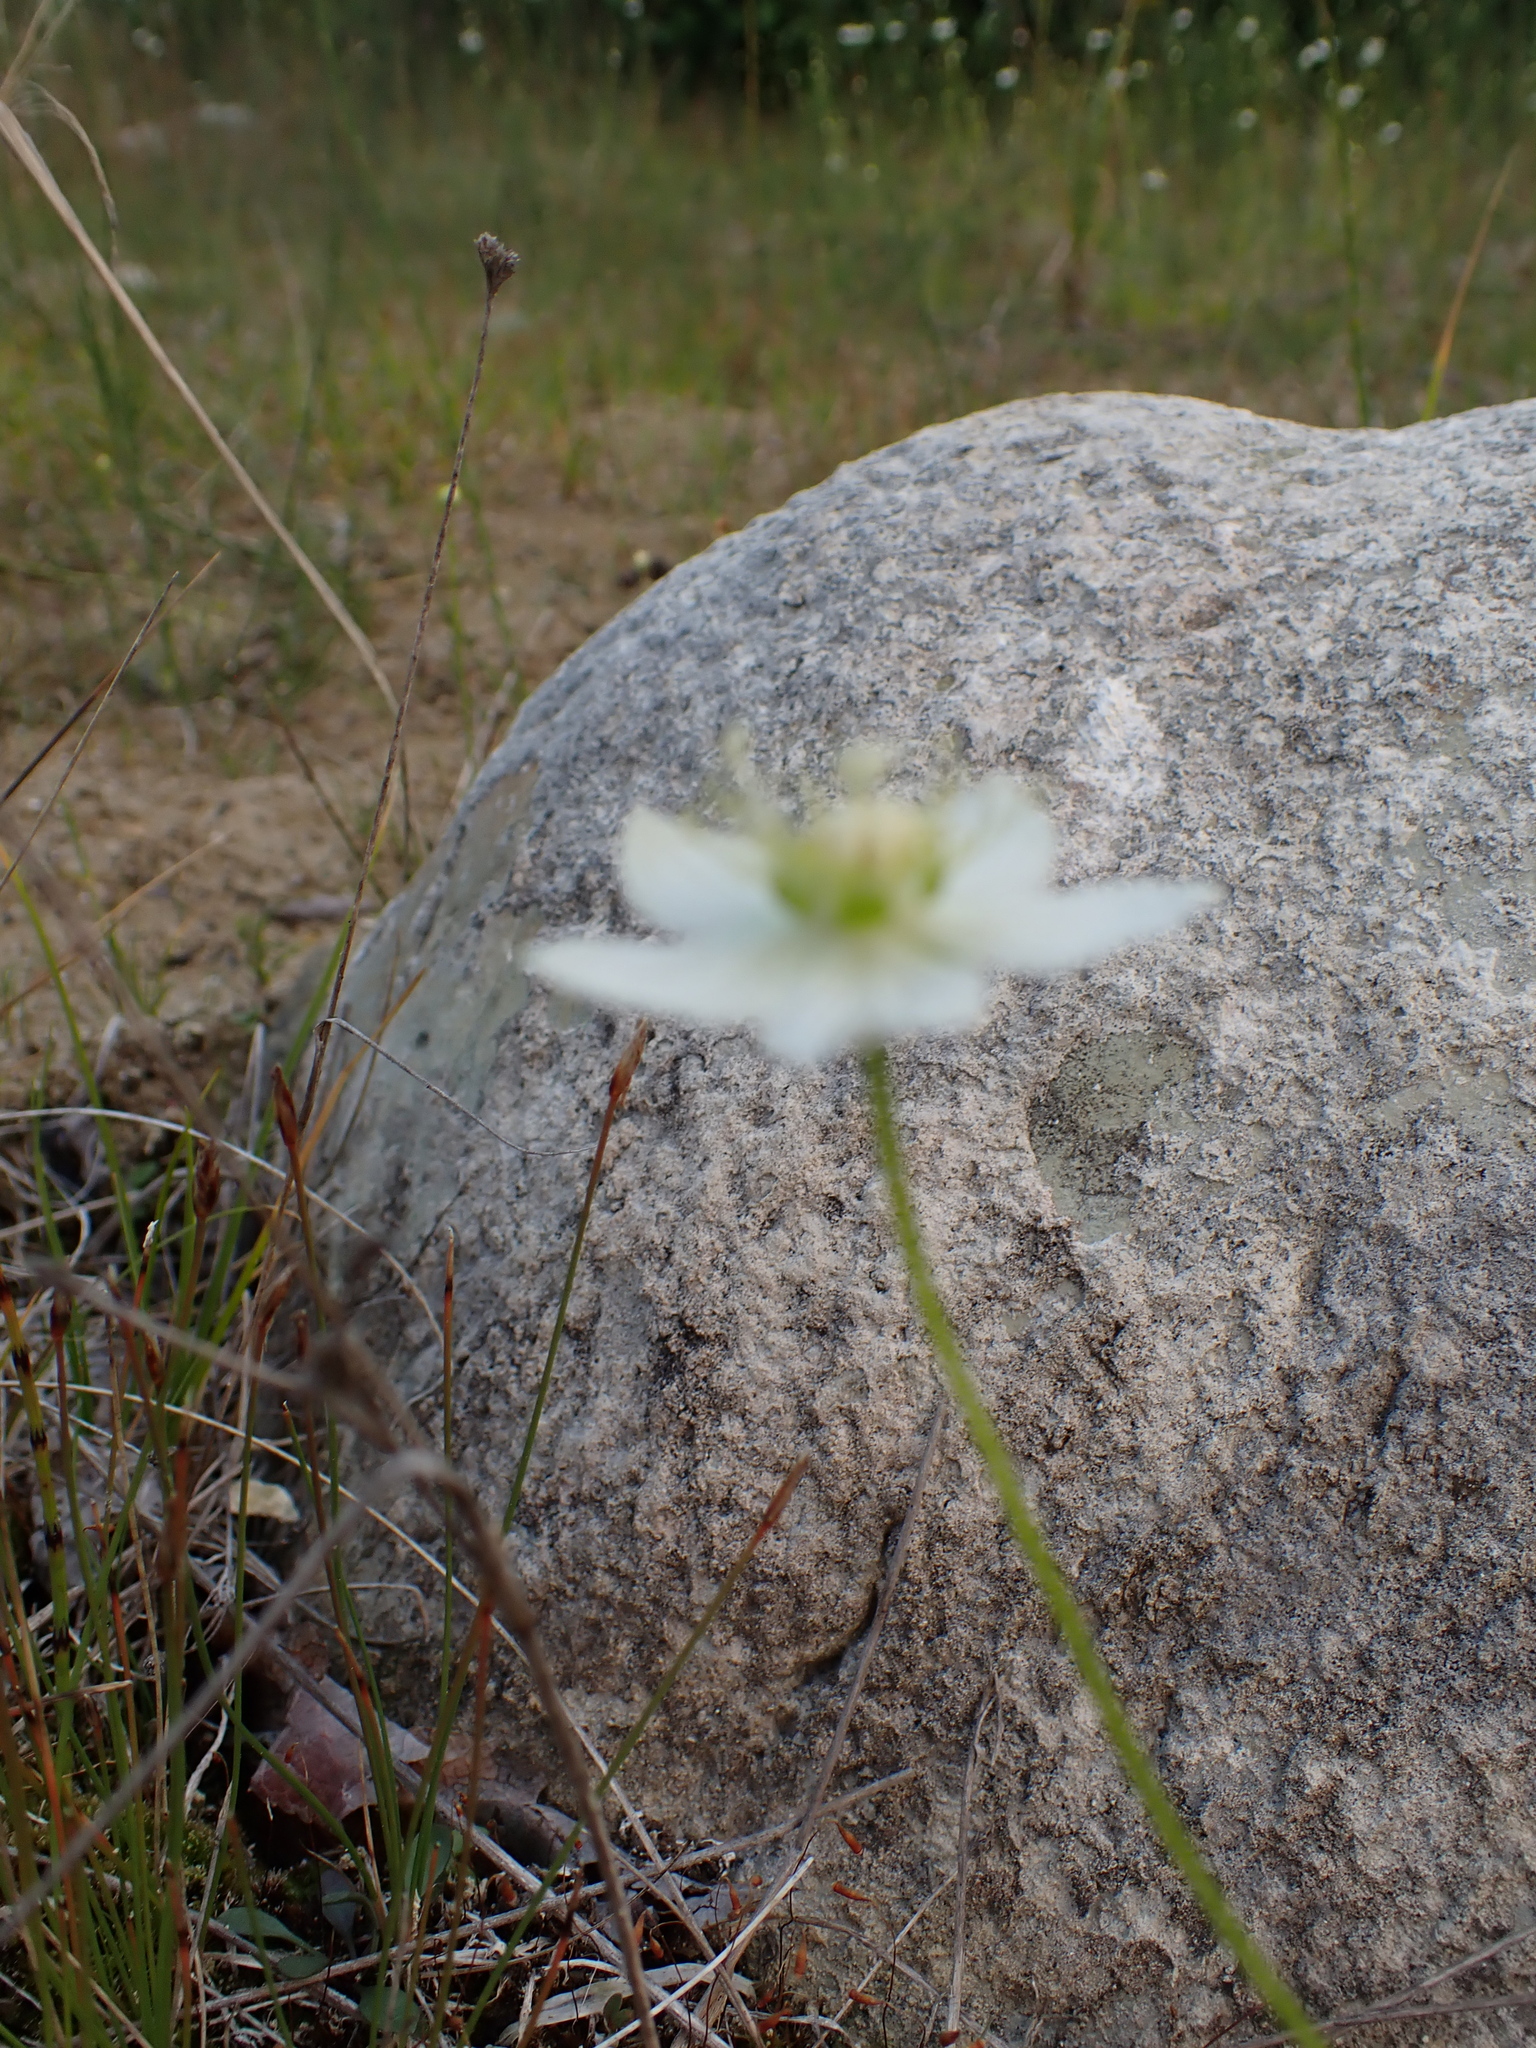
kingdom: Plantae
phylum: Tracheophyta
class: Magnoliopsida
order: Celastrales
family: Parnassiaceae
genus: Parnassia
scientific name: Parnassia palustris
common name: Grass-of-parnassus
